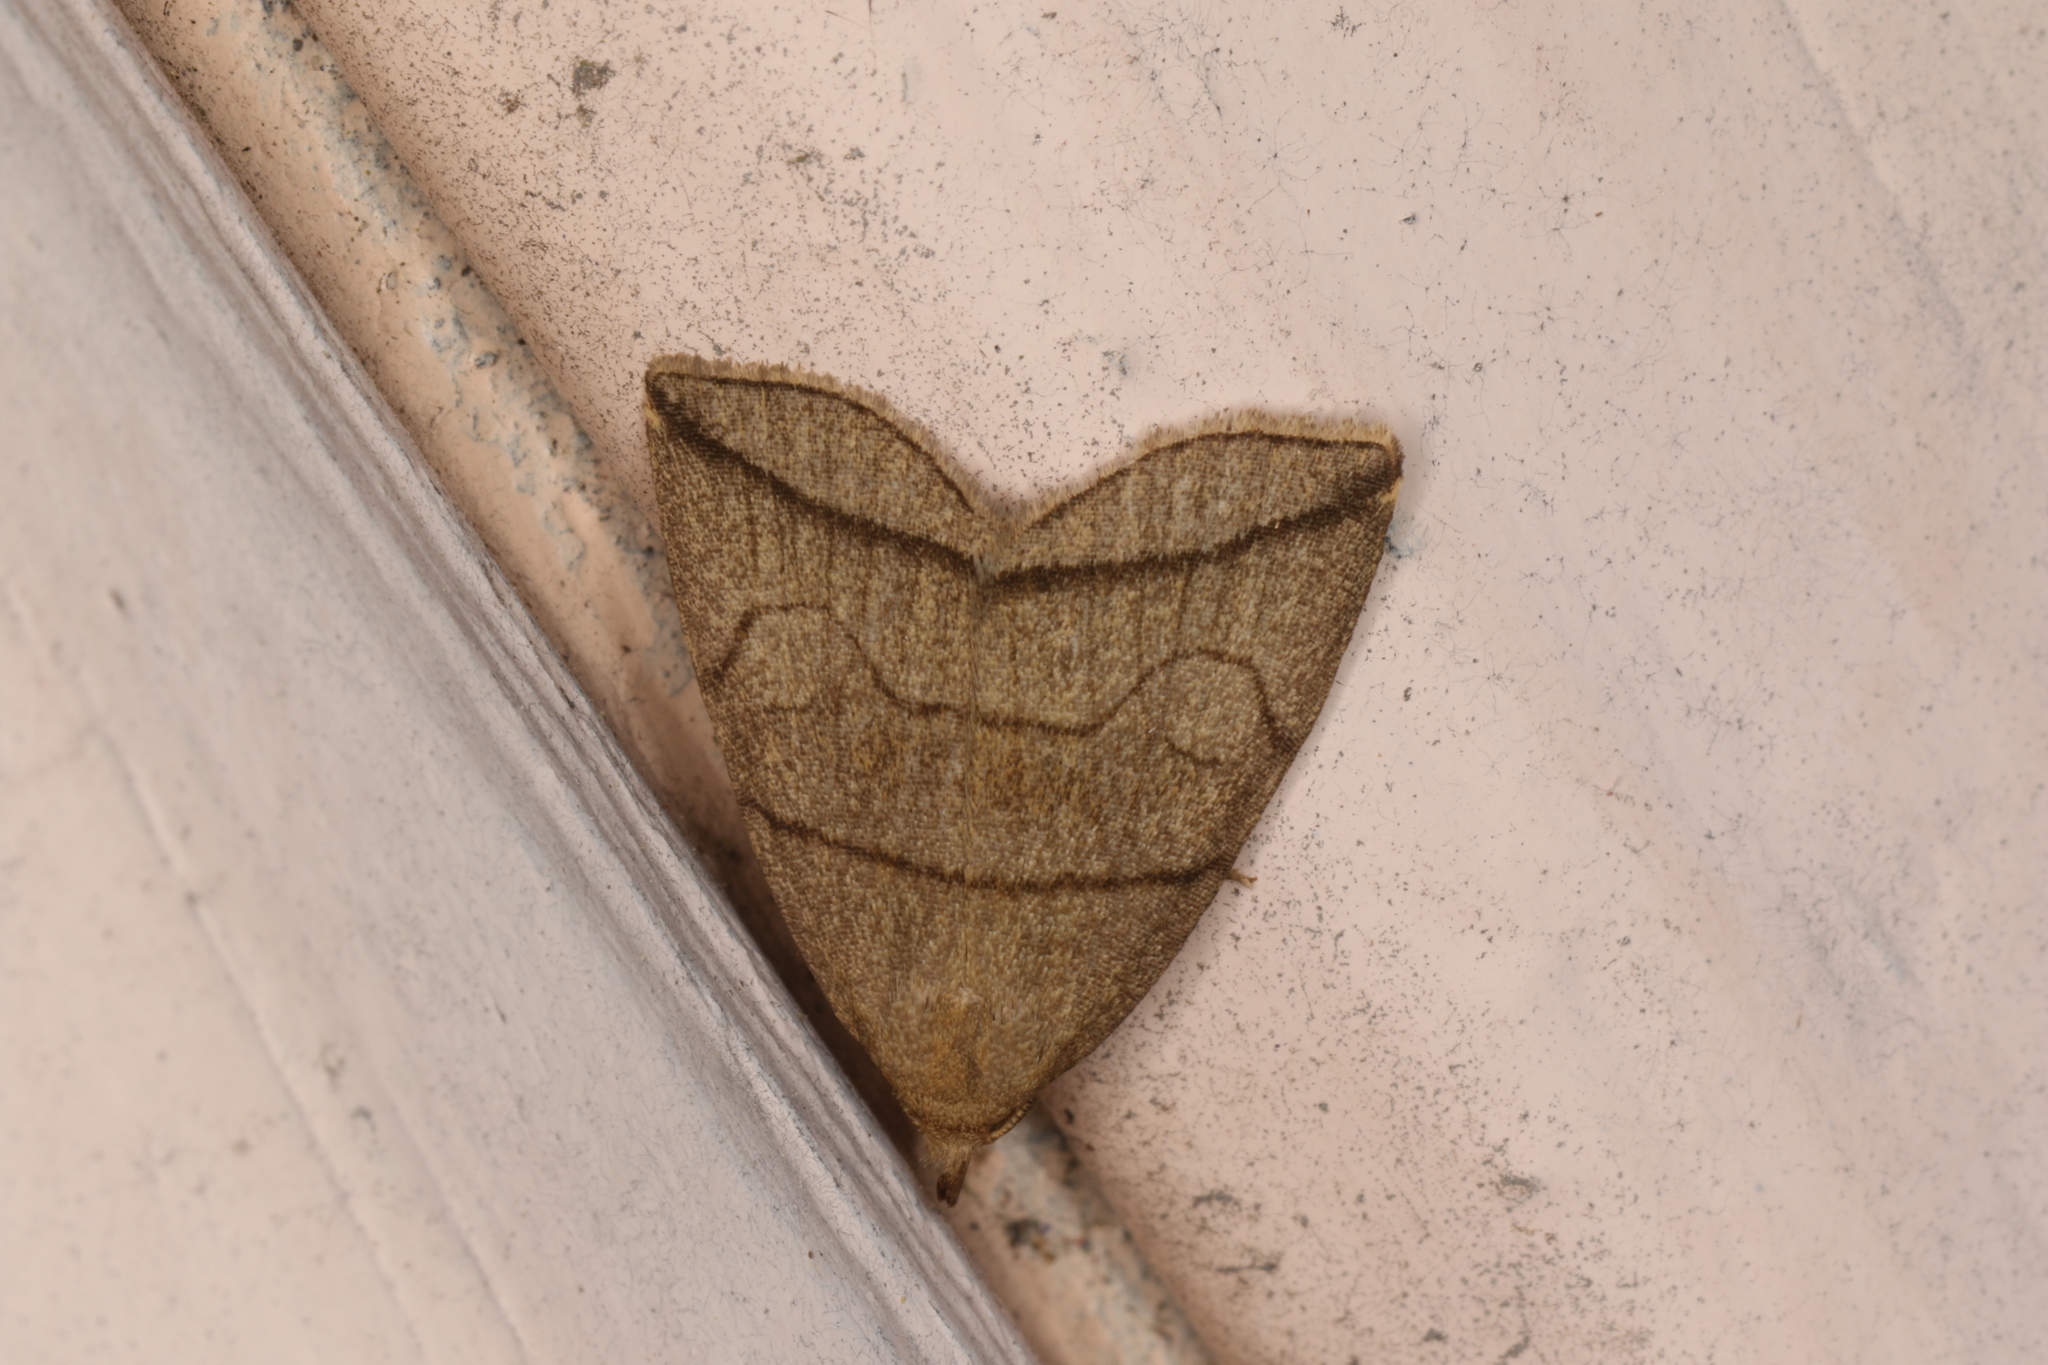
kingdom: Animalia
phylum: Arthropoda
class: Insecta
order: Lepidoptera
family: Erebidae
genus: Herminia
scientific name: Herminia grisealis
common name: Small fan-foot
